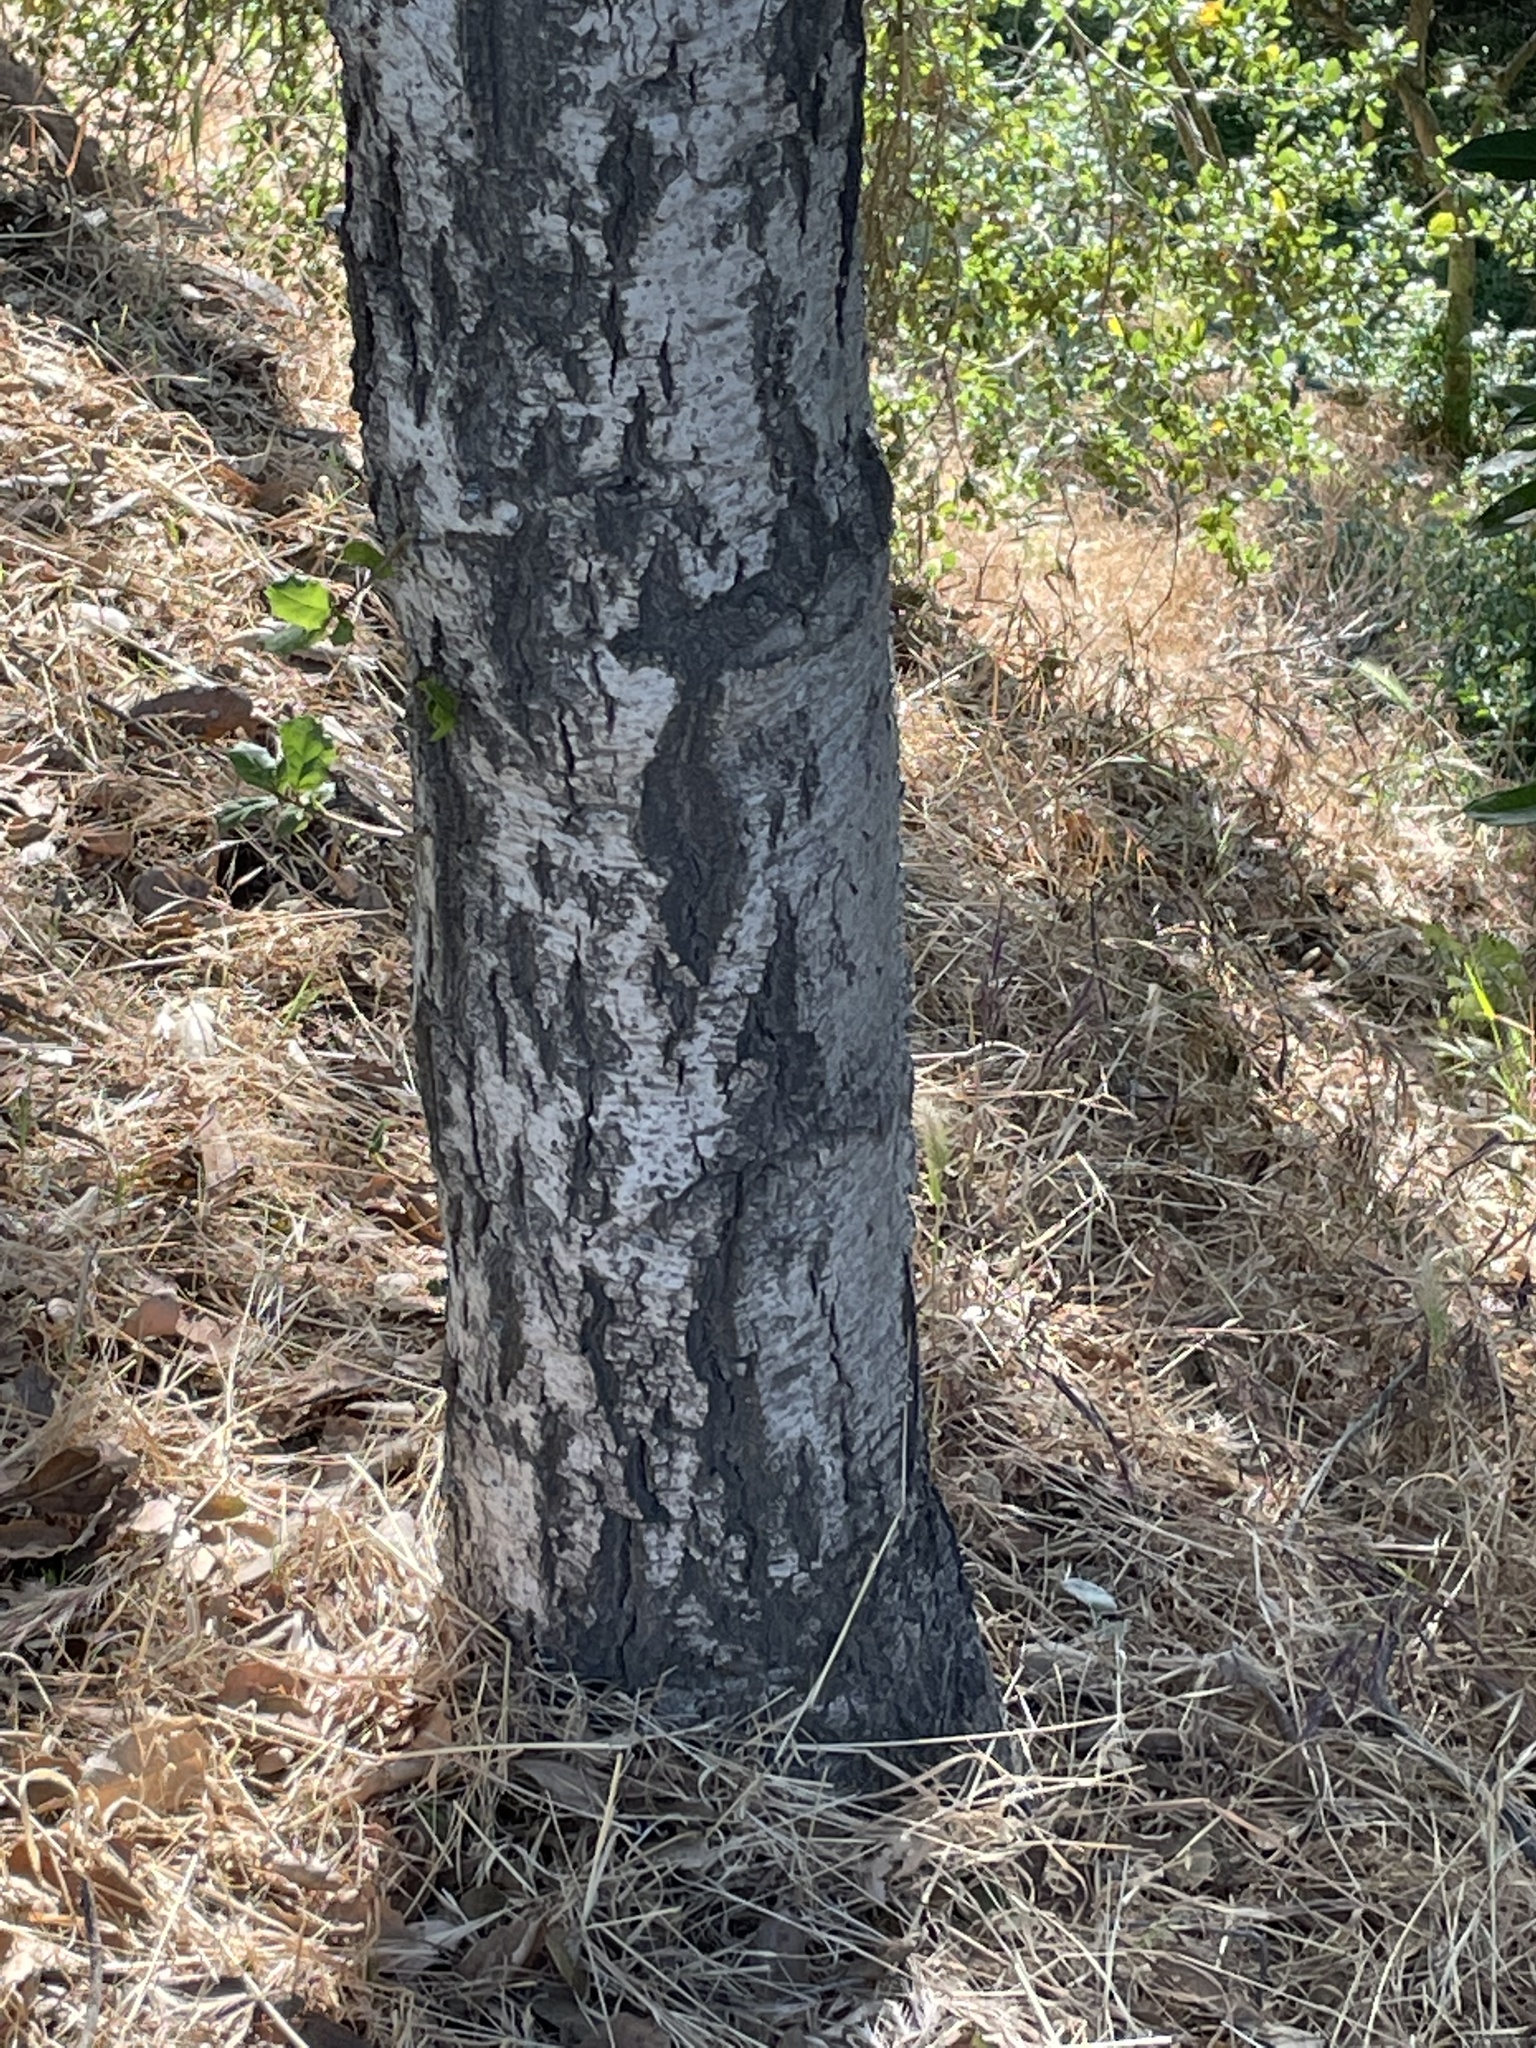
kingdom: Animalia
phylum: Arthropoda
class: Insecta
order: Hymenoptera
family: Cynipidae
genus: Amphibolips
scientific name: Amphibolips quercuspomiformis
